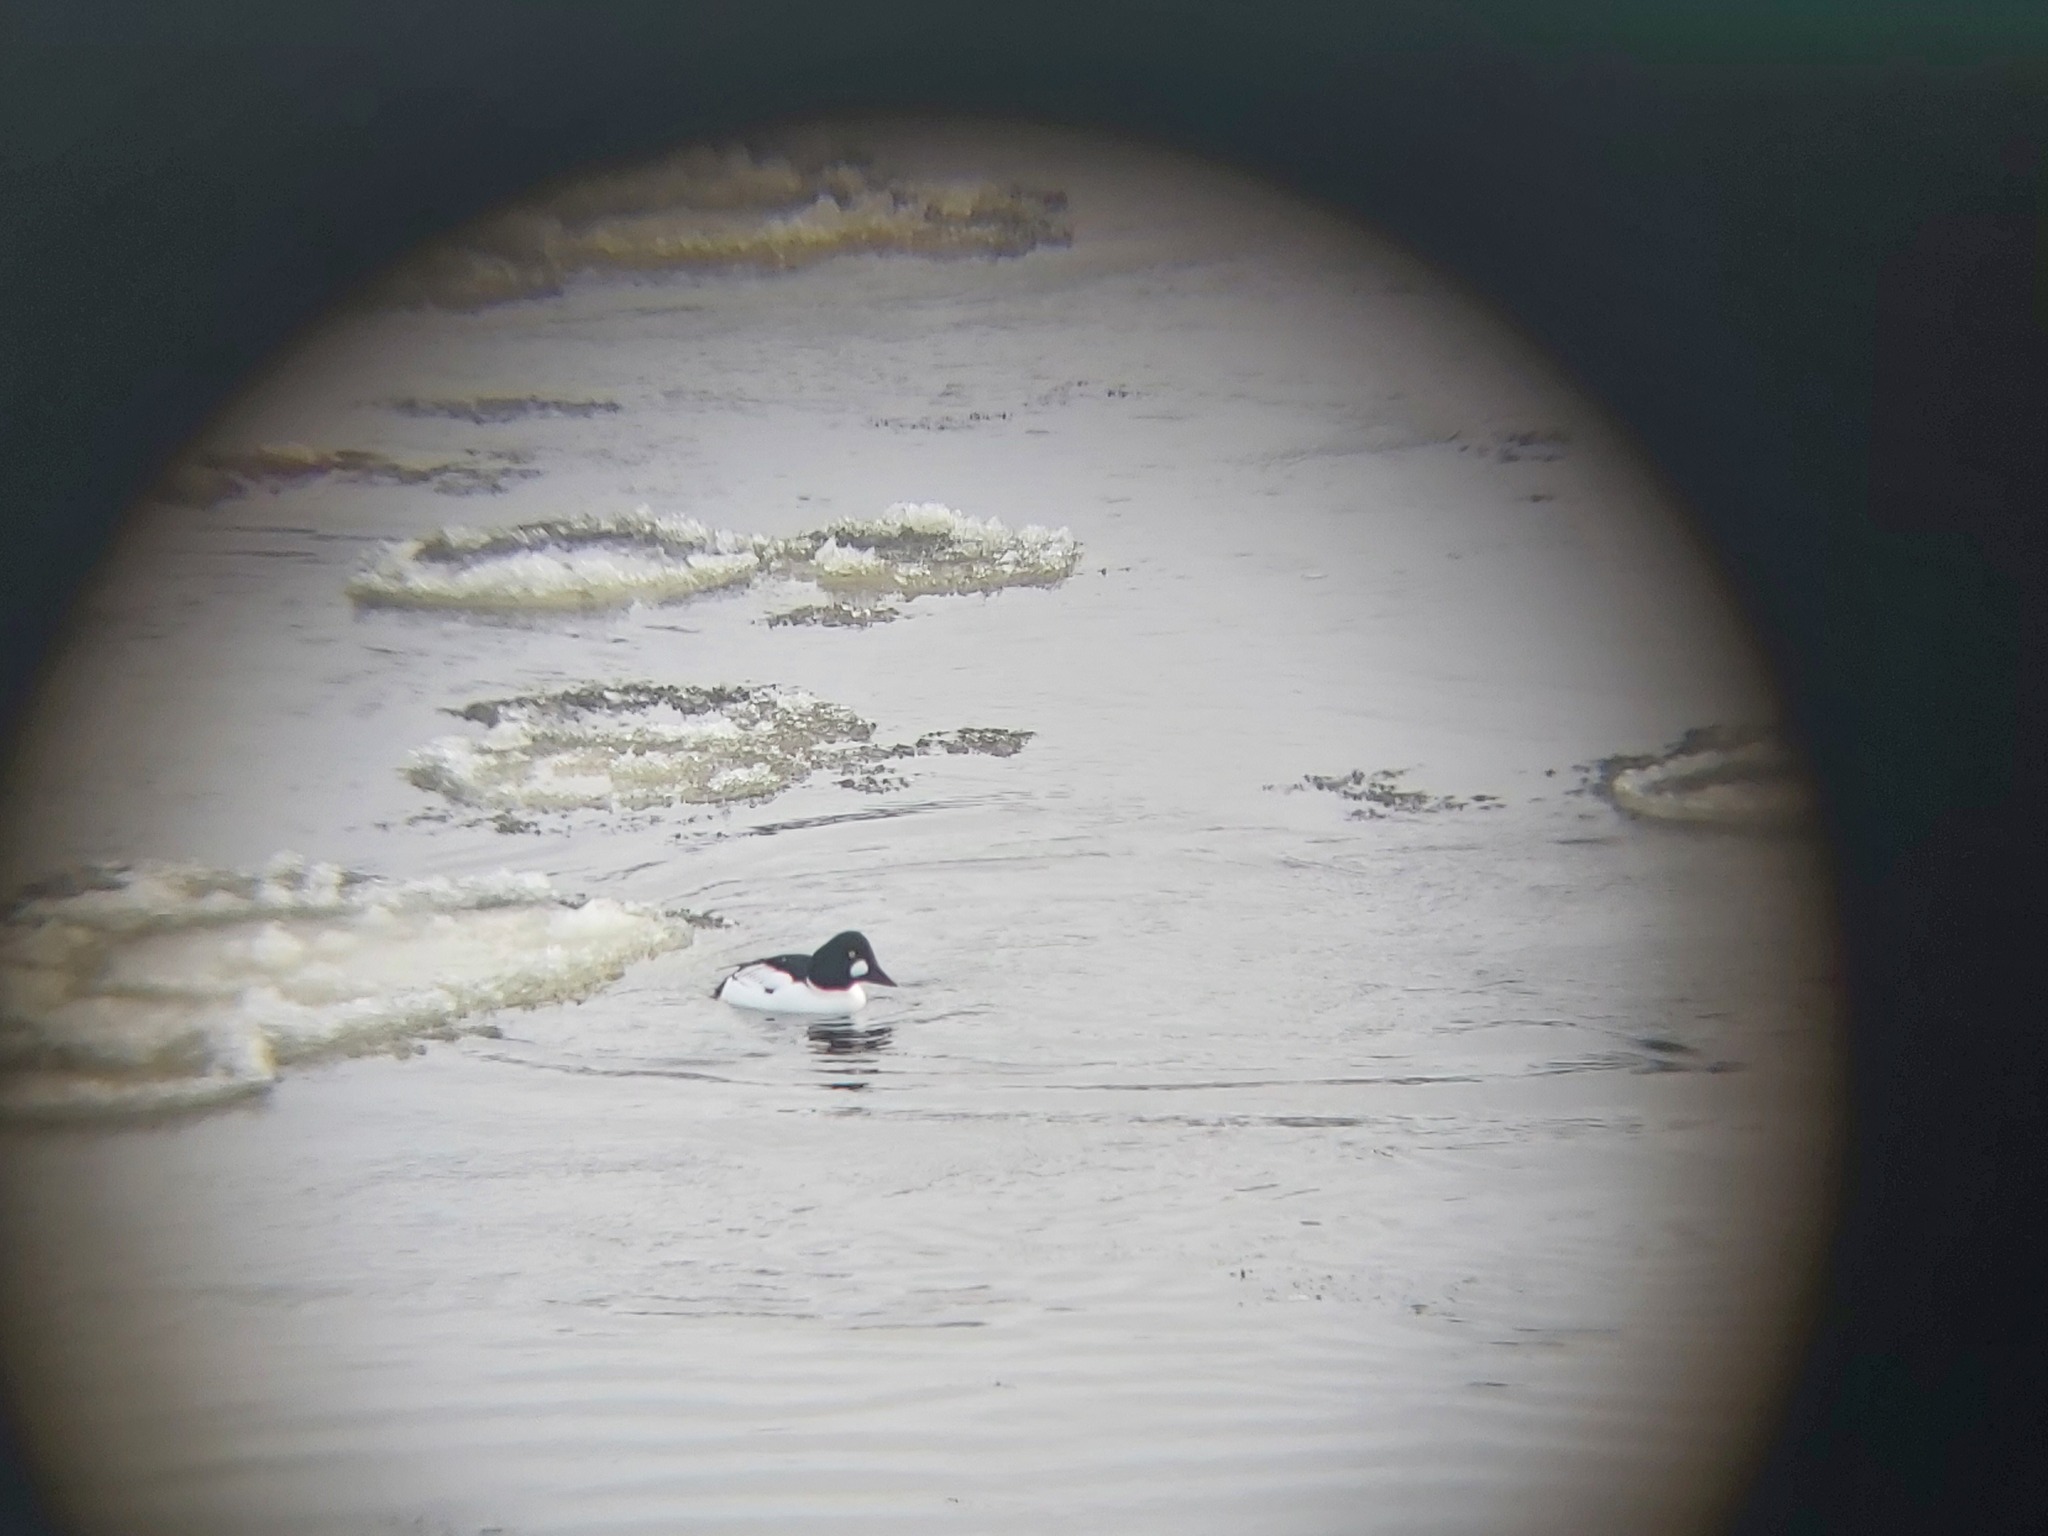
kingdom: Animalia
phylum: Chordata
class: Aves
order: Anseriformes
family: Anatidae
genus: Bucephala
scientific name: Bucephala clangula
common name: Common goldeneye
